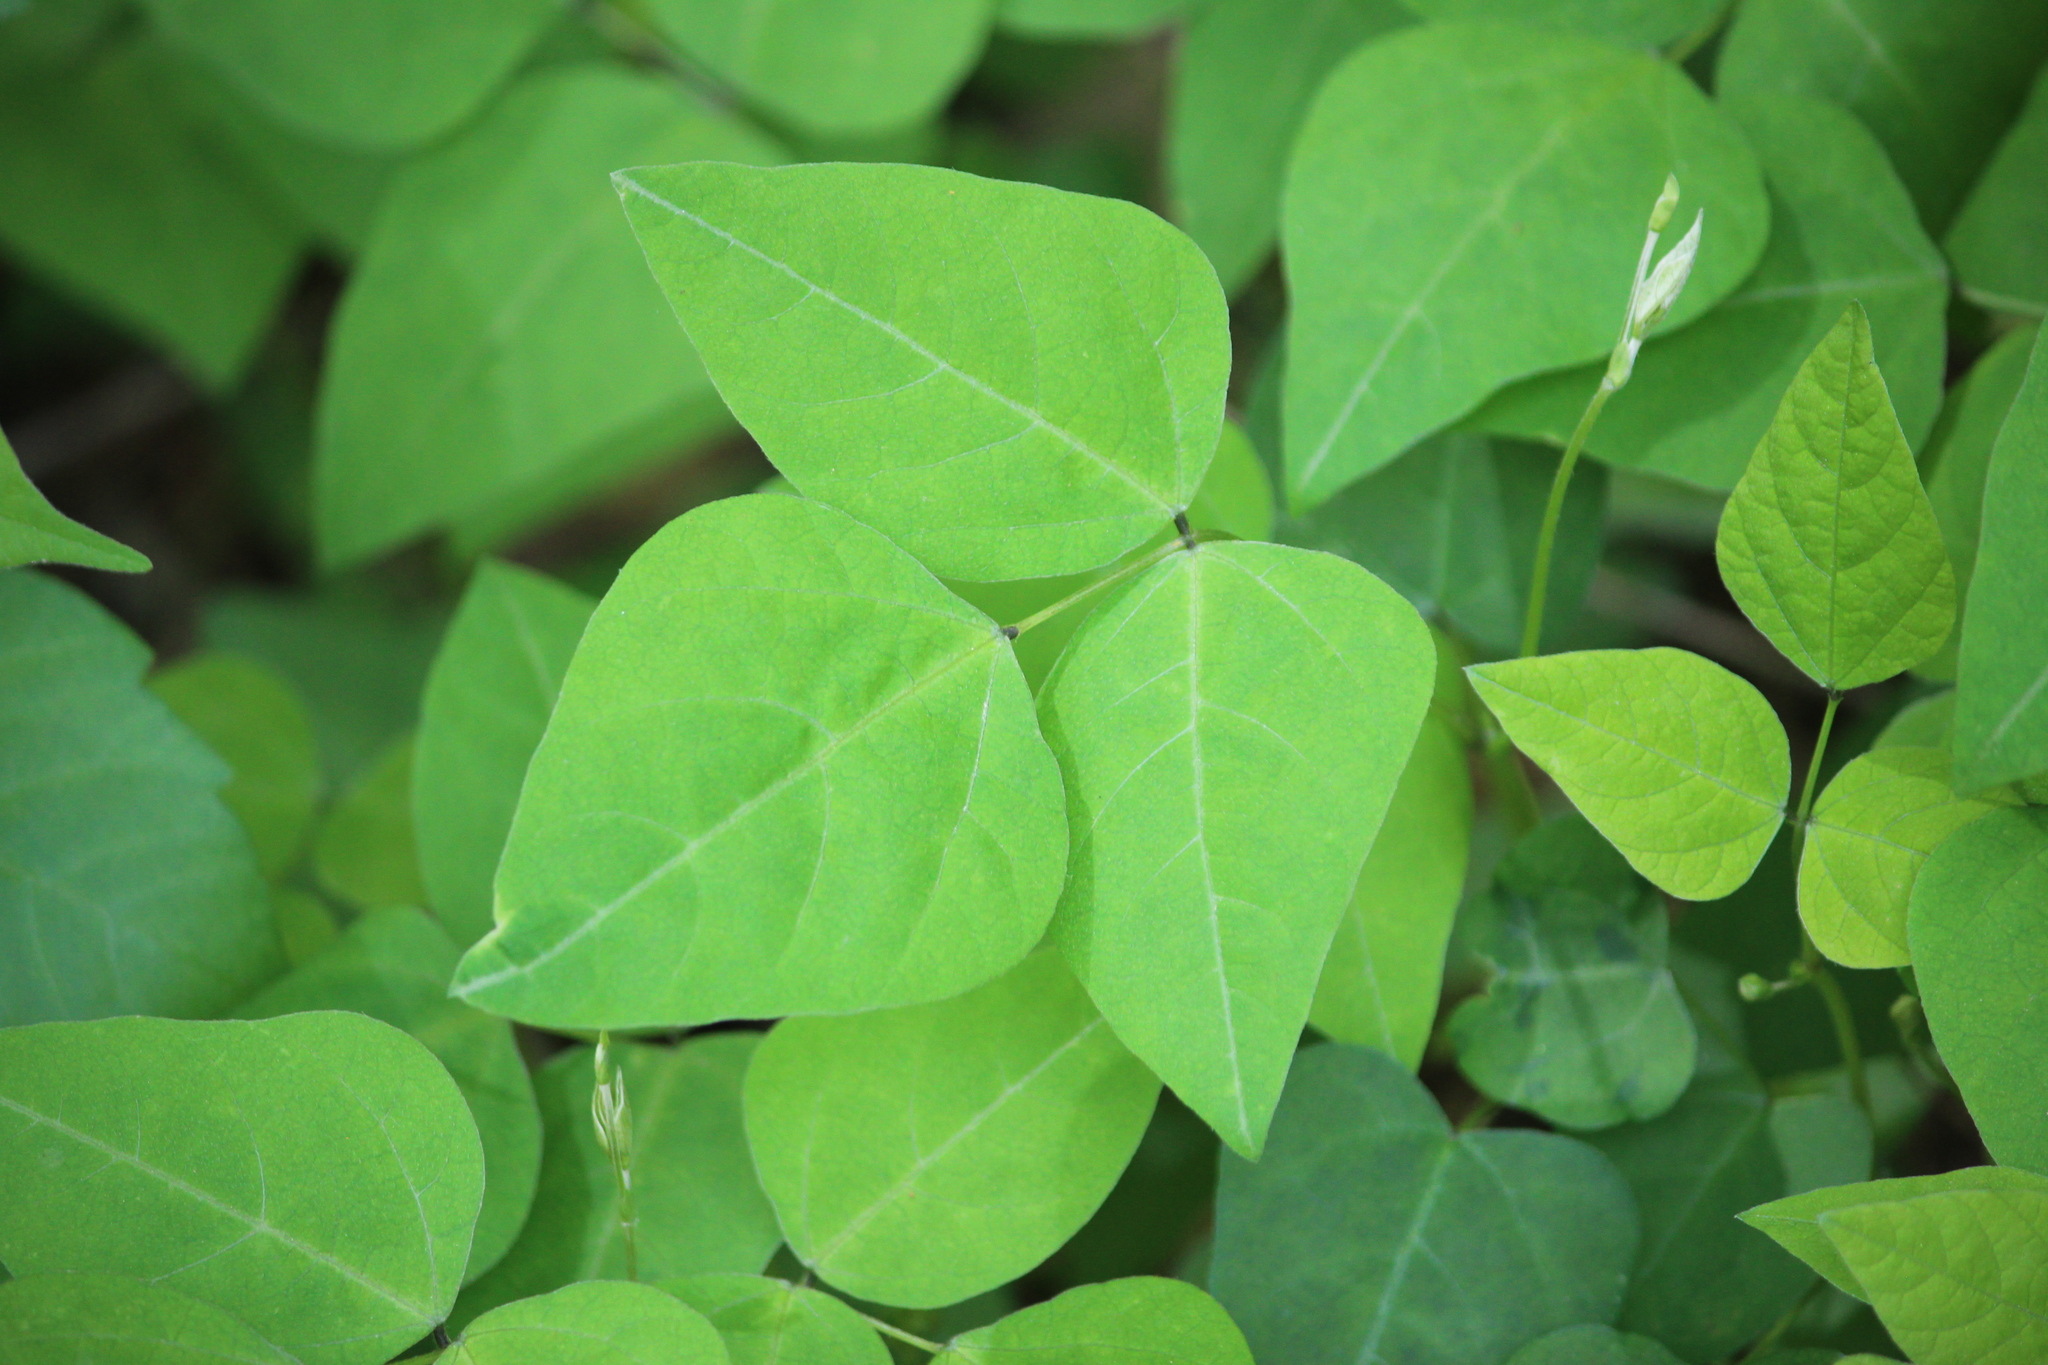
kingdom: Plantae
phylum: Tracheophyta
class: Magnoliopsida
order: Fabales
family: Fabaceae
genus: Amphicarpaea
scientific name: Amphicarpaea bracteata
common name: American hog peanut
